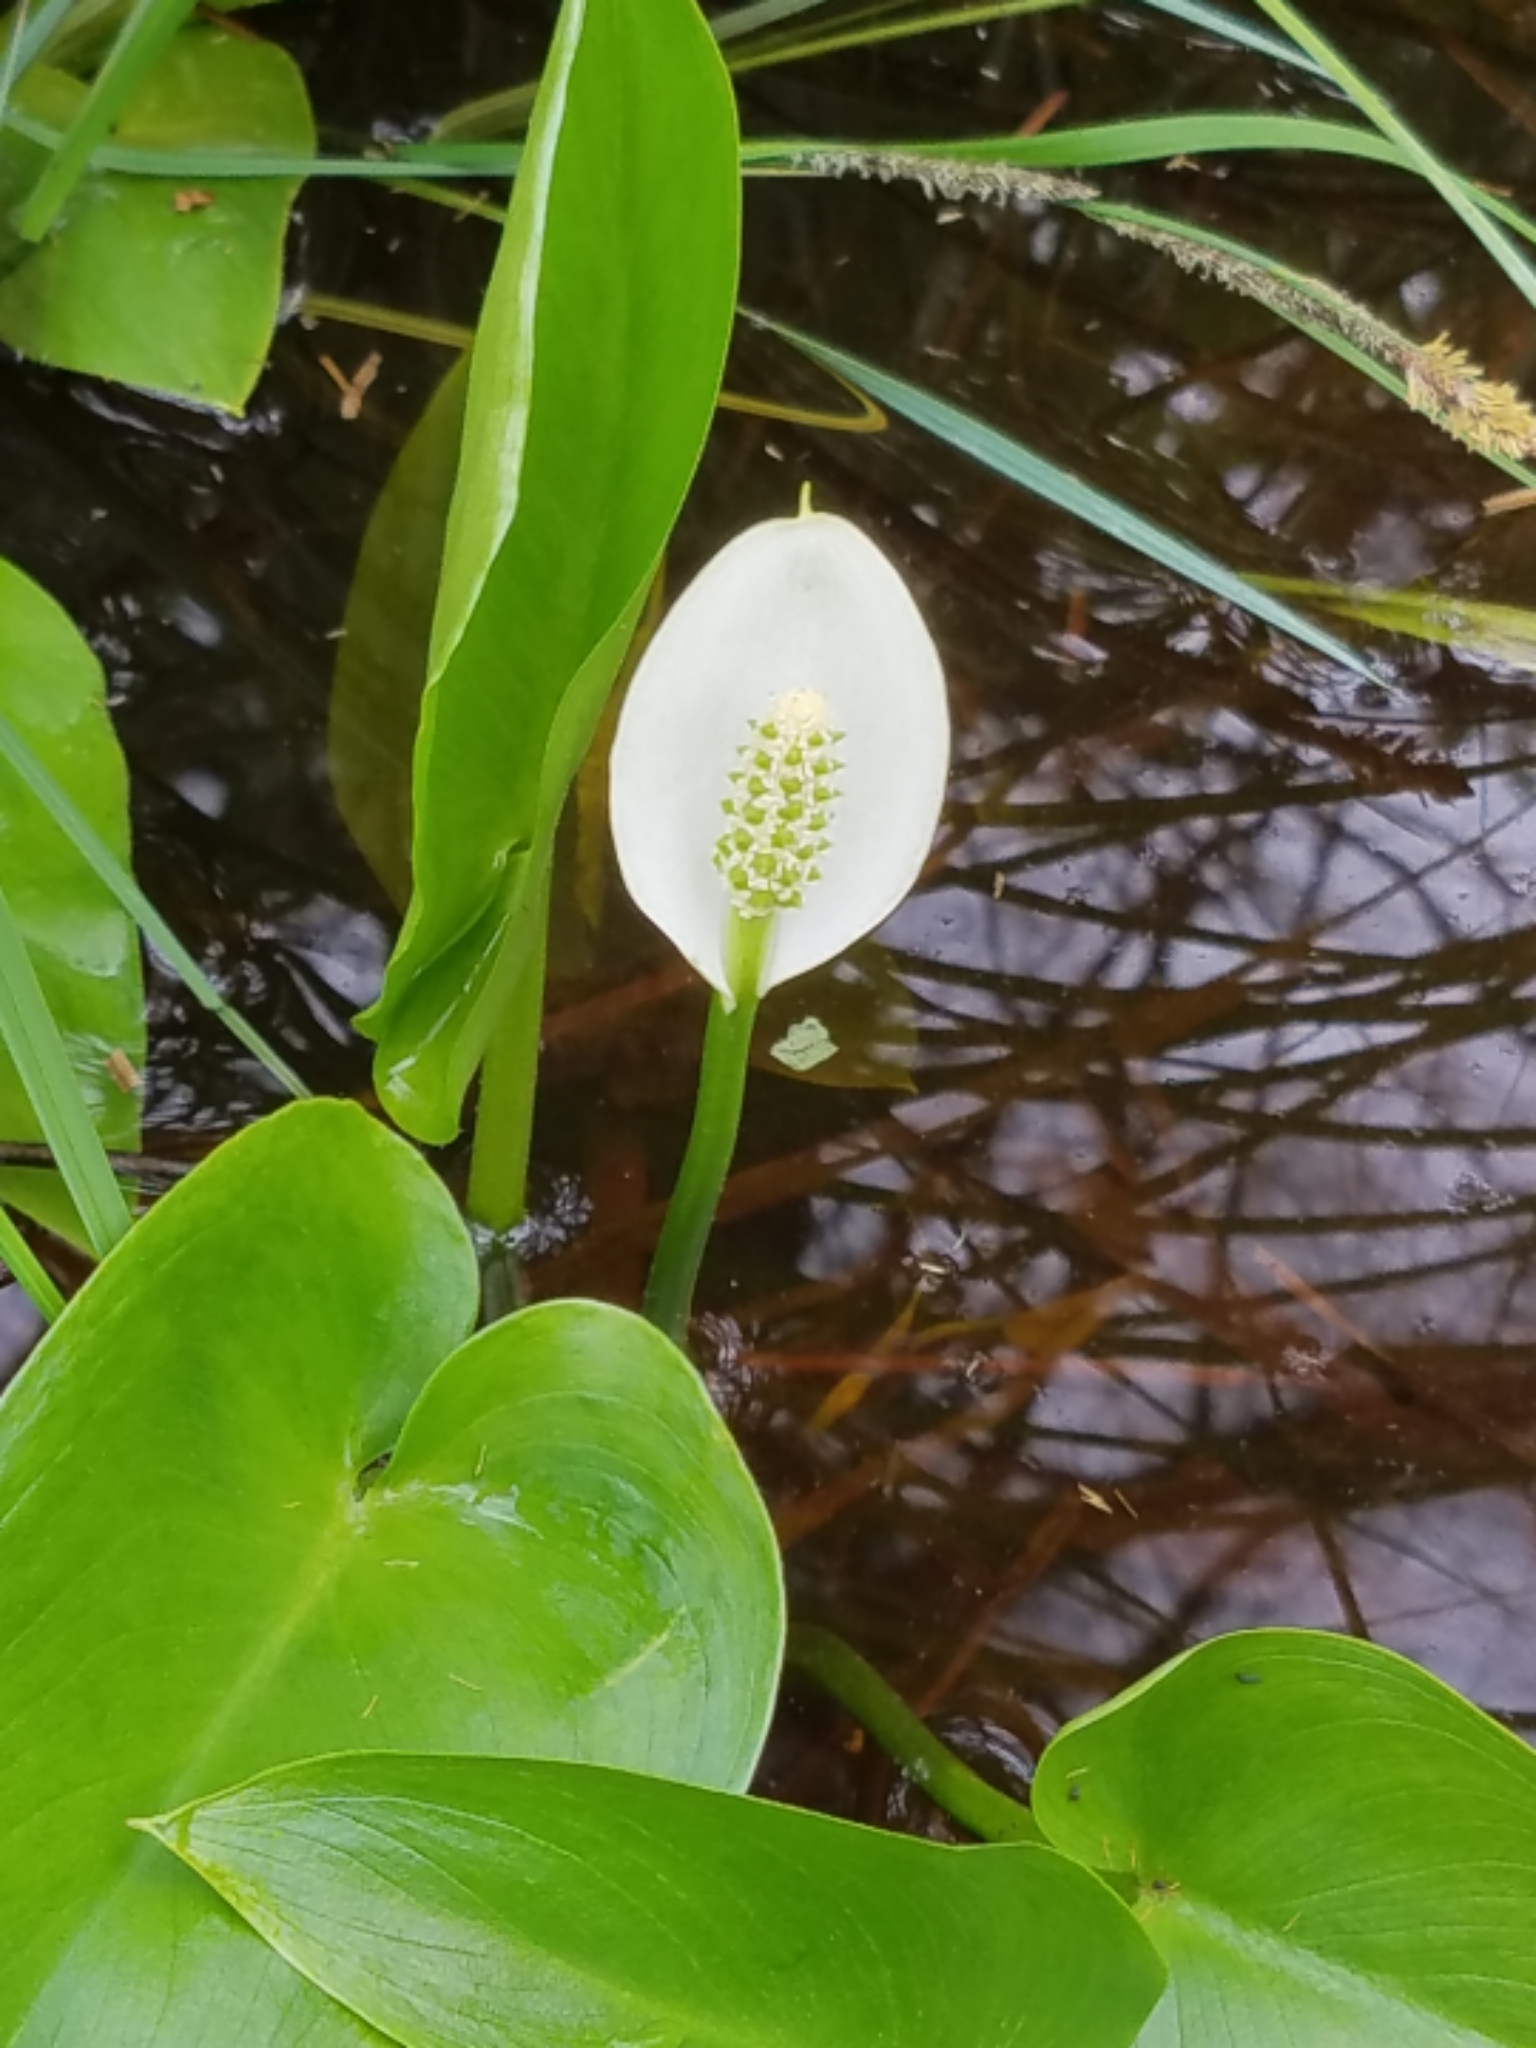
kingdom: Plantae
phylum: Tracheophyta
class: Liliopsida
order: Alismatales
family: Araceae
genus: Calla
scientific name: Calla palustris
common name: Bog arum
